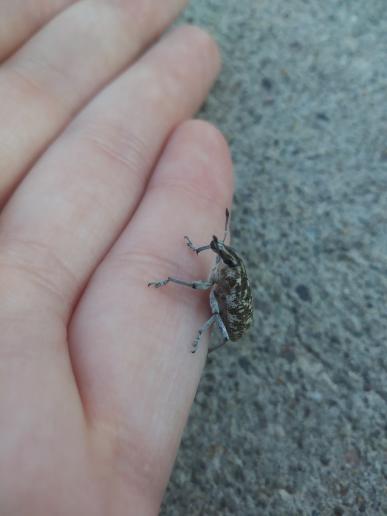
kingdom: Animalia
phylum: Arthropoda
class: Insecta
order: Coleoptera
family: Curculionidae
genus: Cleonus
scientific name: Cleonus achates
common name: Root weevil
